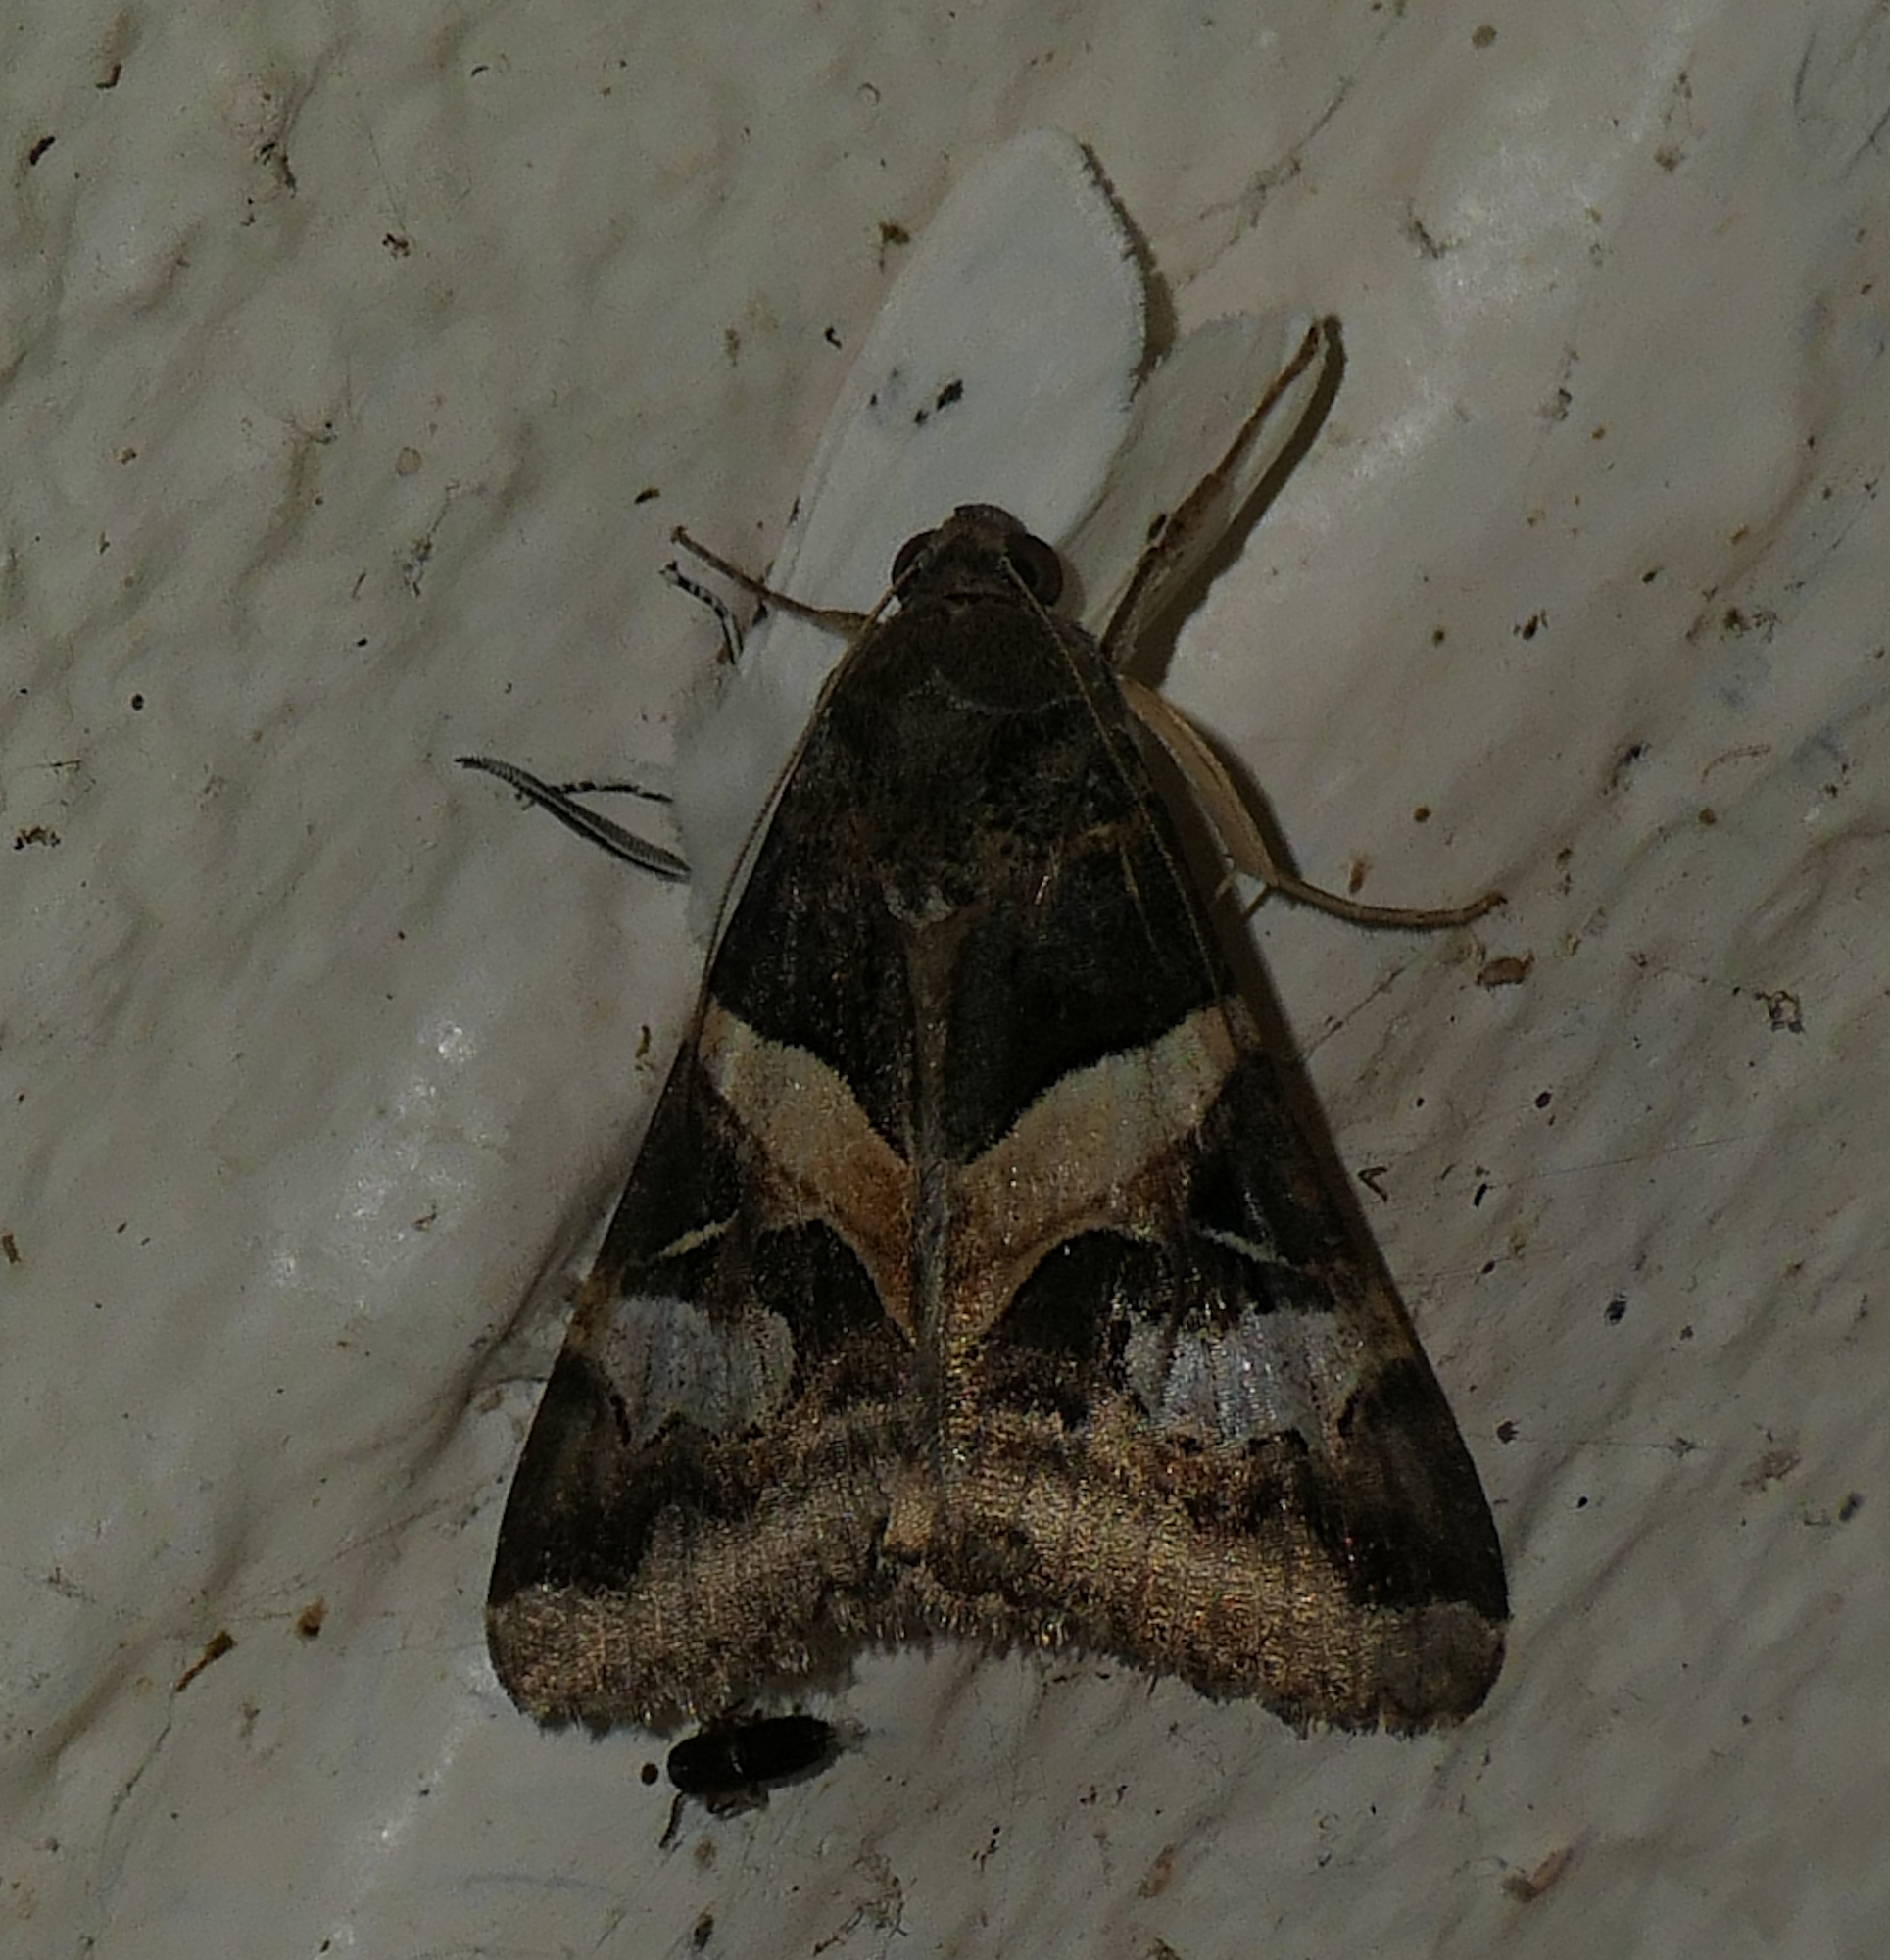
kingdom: Animalia
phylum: Arthropoda
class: Insecta
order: Lepidoptera
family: Erebidae
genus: Melipotis
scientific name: Melipotis indomita
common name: Moth
